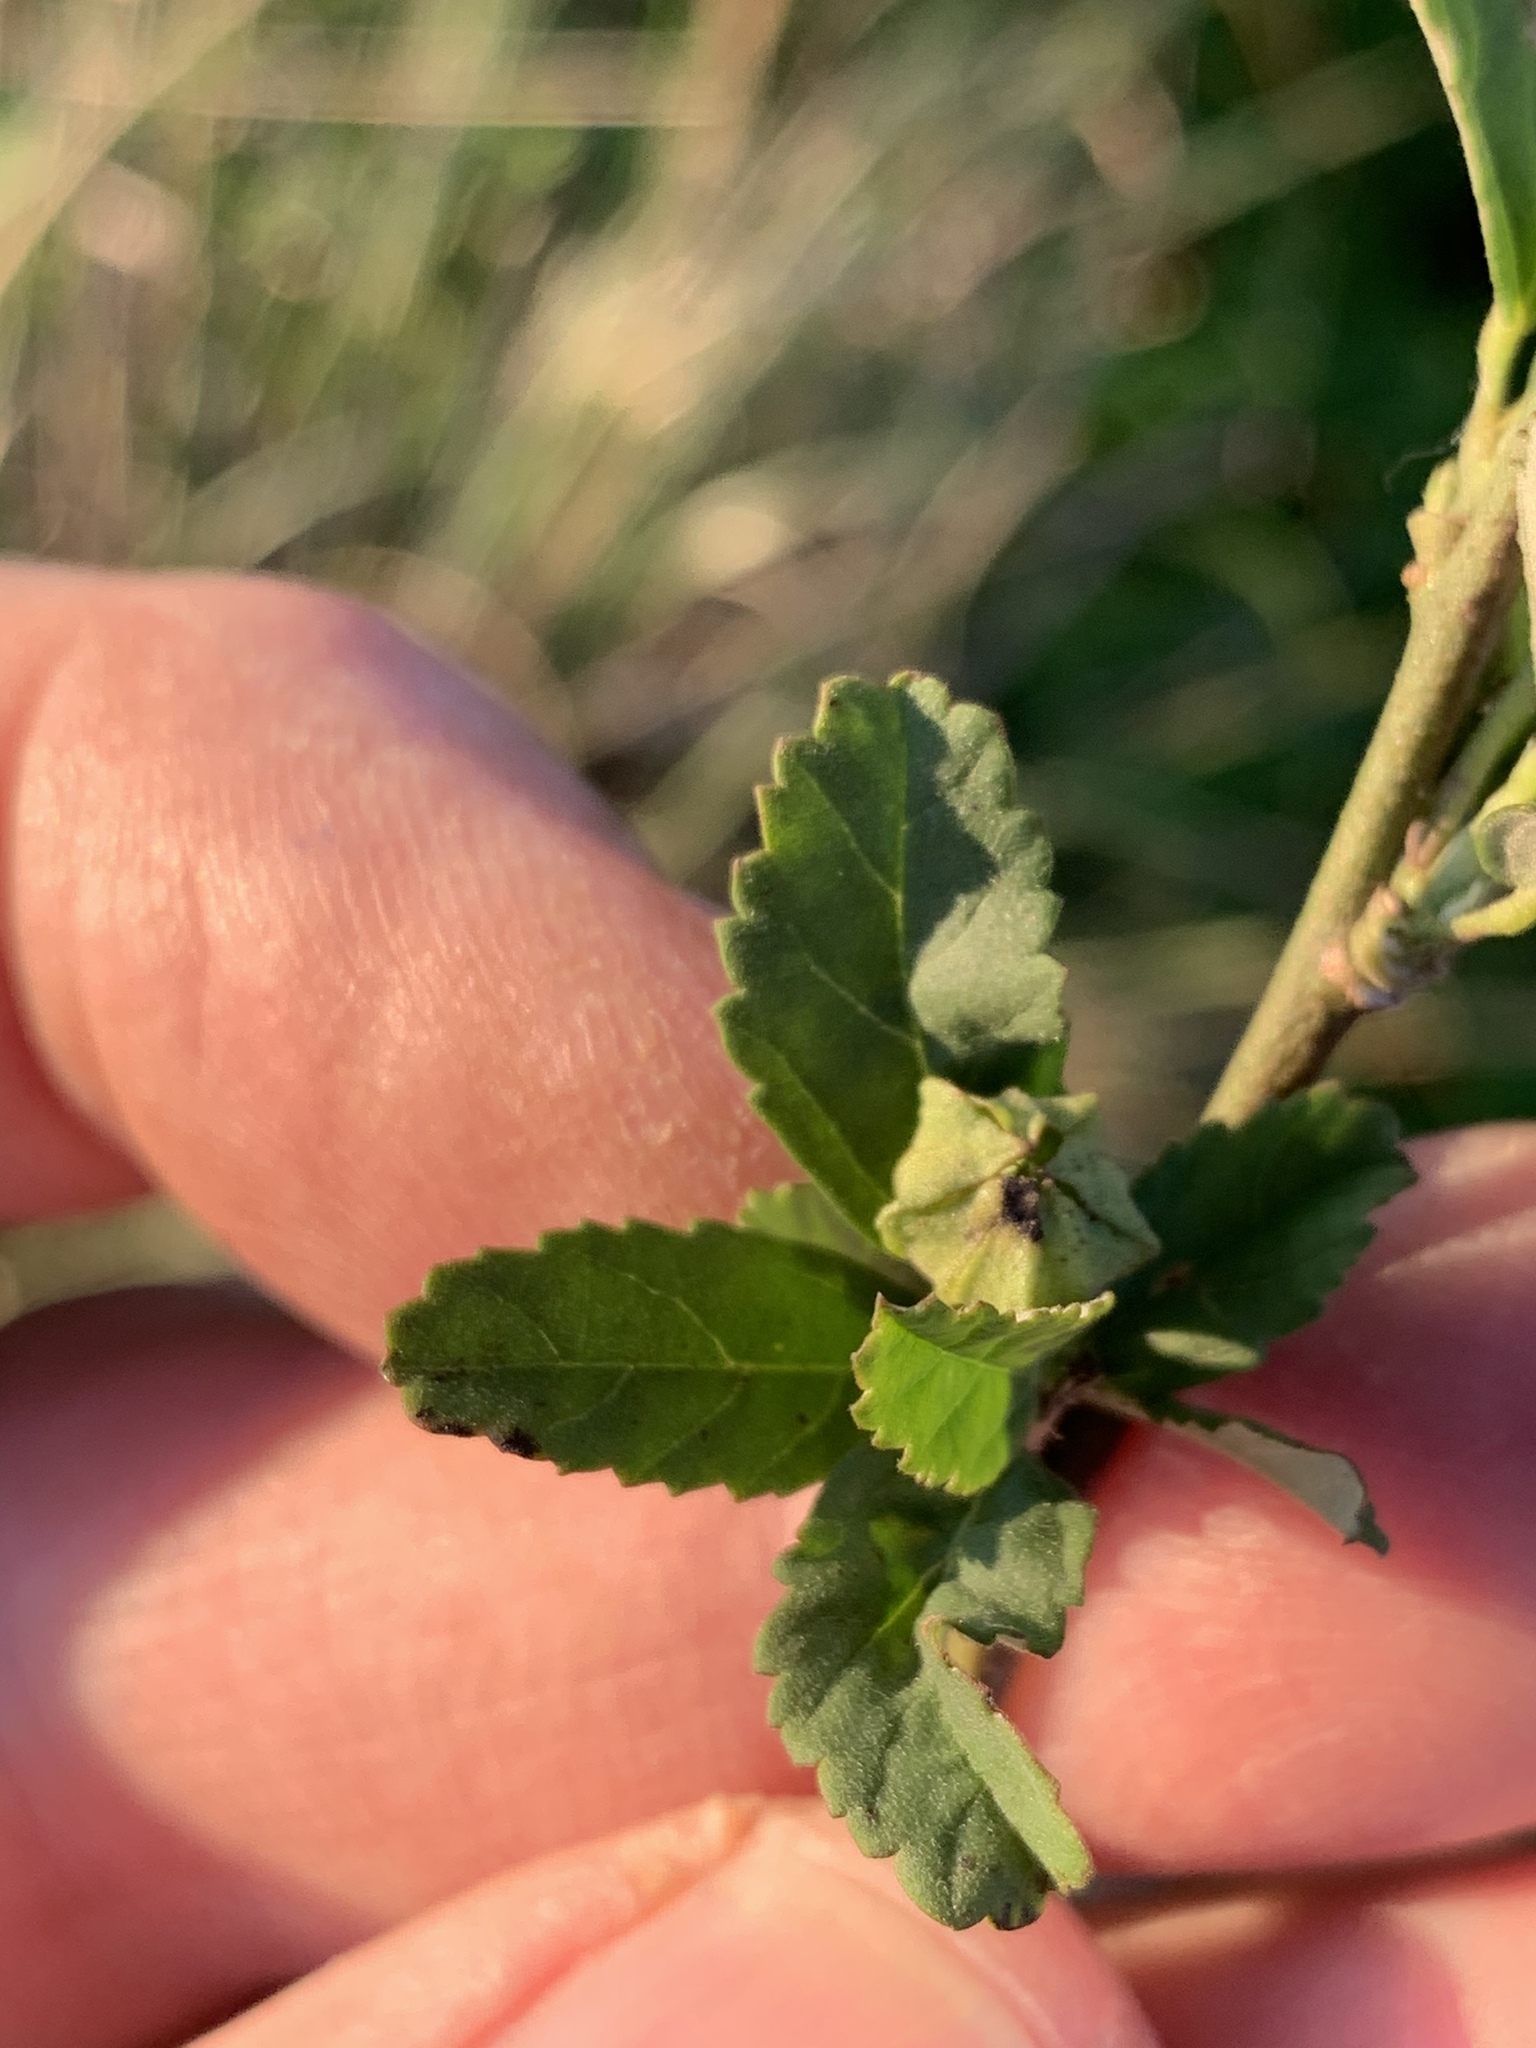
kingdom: Plantae
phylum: Tracheophyta
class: Magnoliopsida
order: Malvales
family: Malvaceae
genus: Sida
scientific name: Sida rhombifolia
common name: Queensland-hemp
